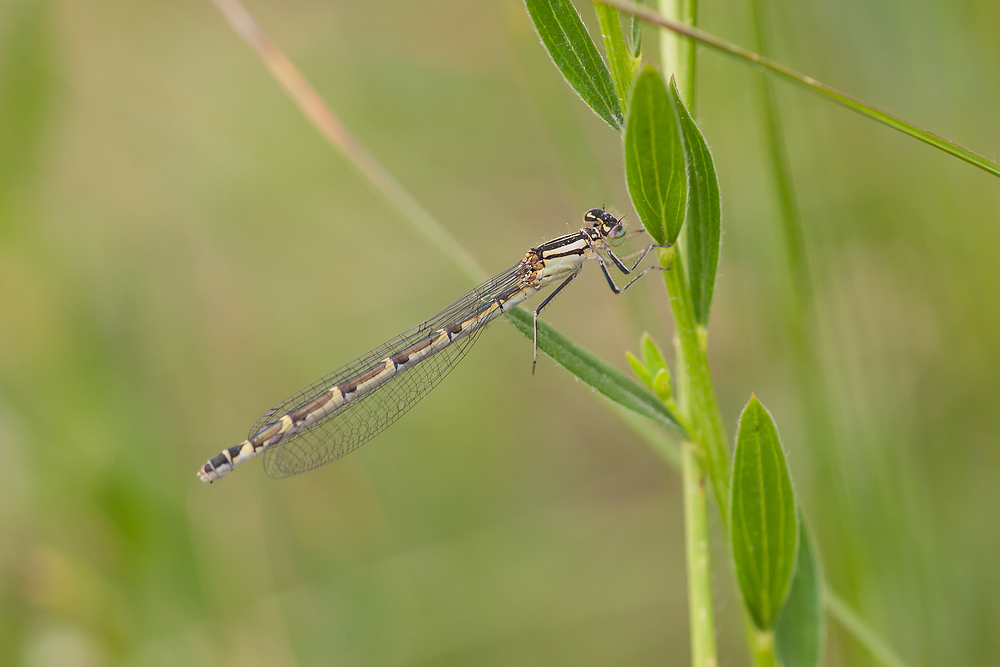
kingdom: Animalia
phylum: Arthropoda
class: Insecta
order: Odonata
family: Coenagrionidae
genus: Enallagma
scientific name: Enallagma cyathigerum
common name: Common blue damselfly
